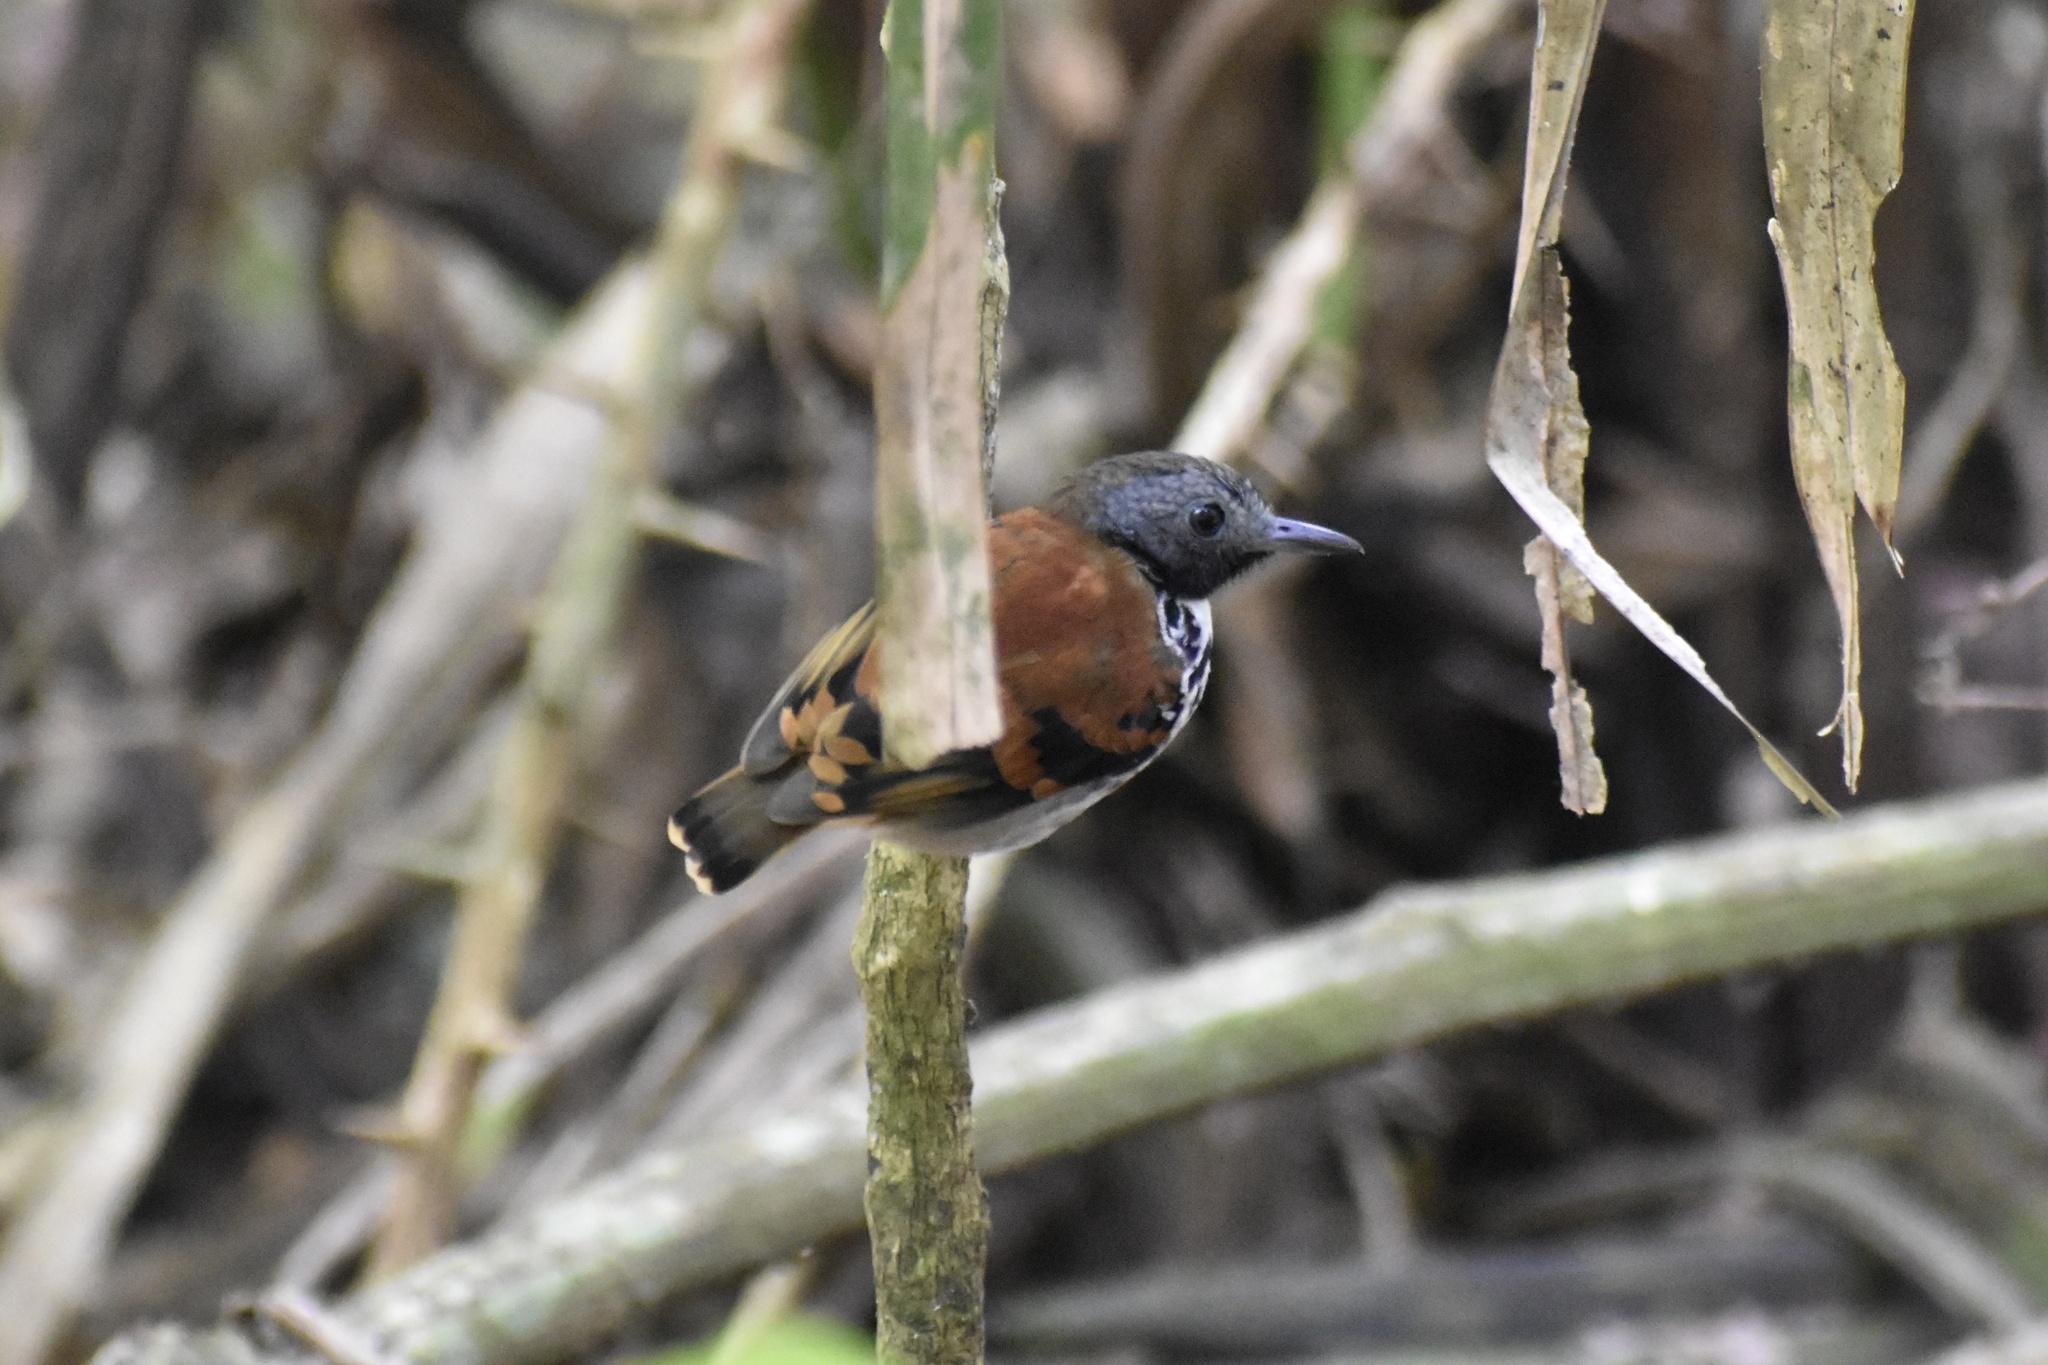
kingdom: Animalia
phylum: Chordata
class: Aves
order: Passeriformes
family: Thamnophilidae
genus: Hylophylax
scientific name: Hylophylax naevioides
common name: Spotted antbird
